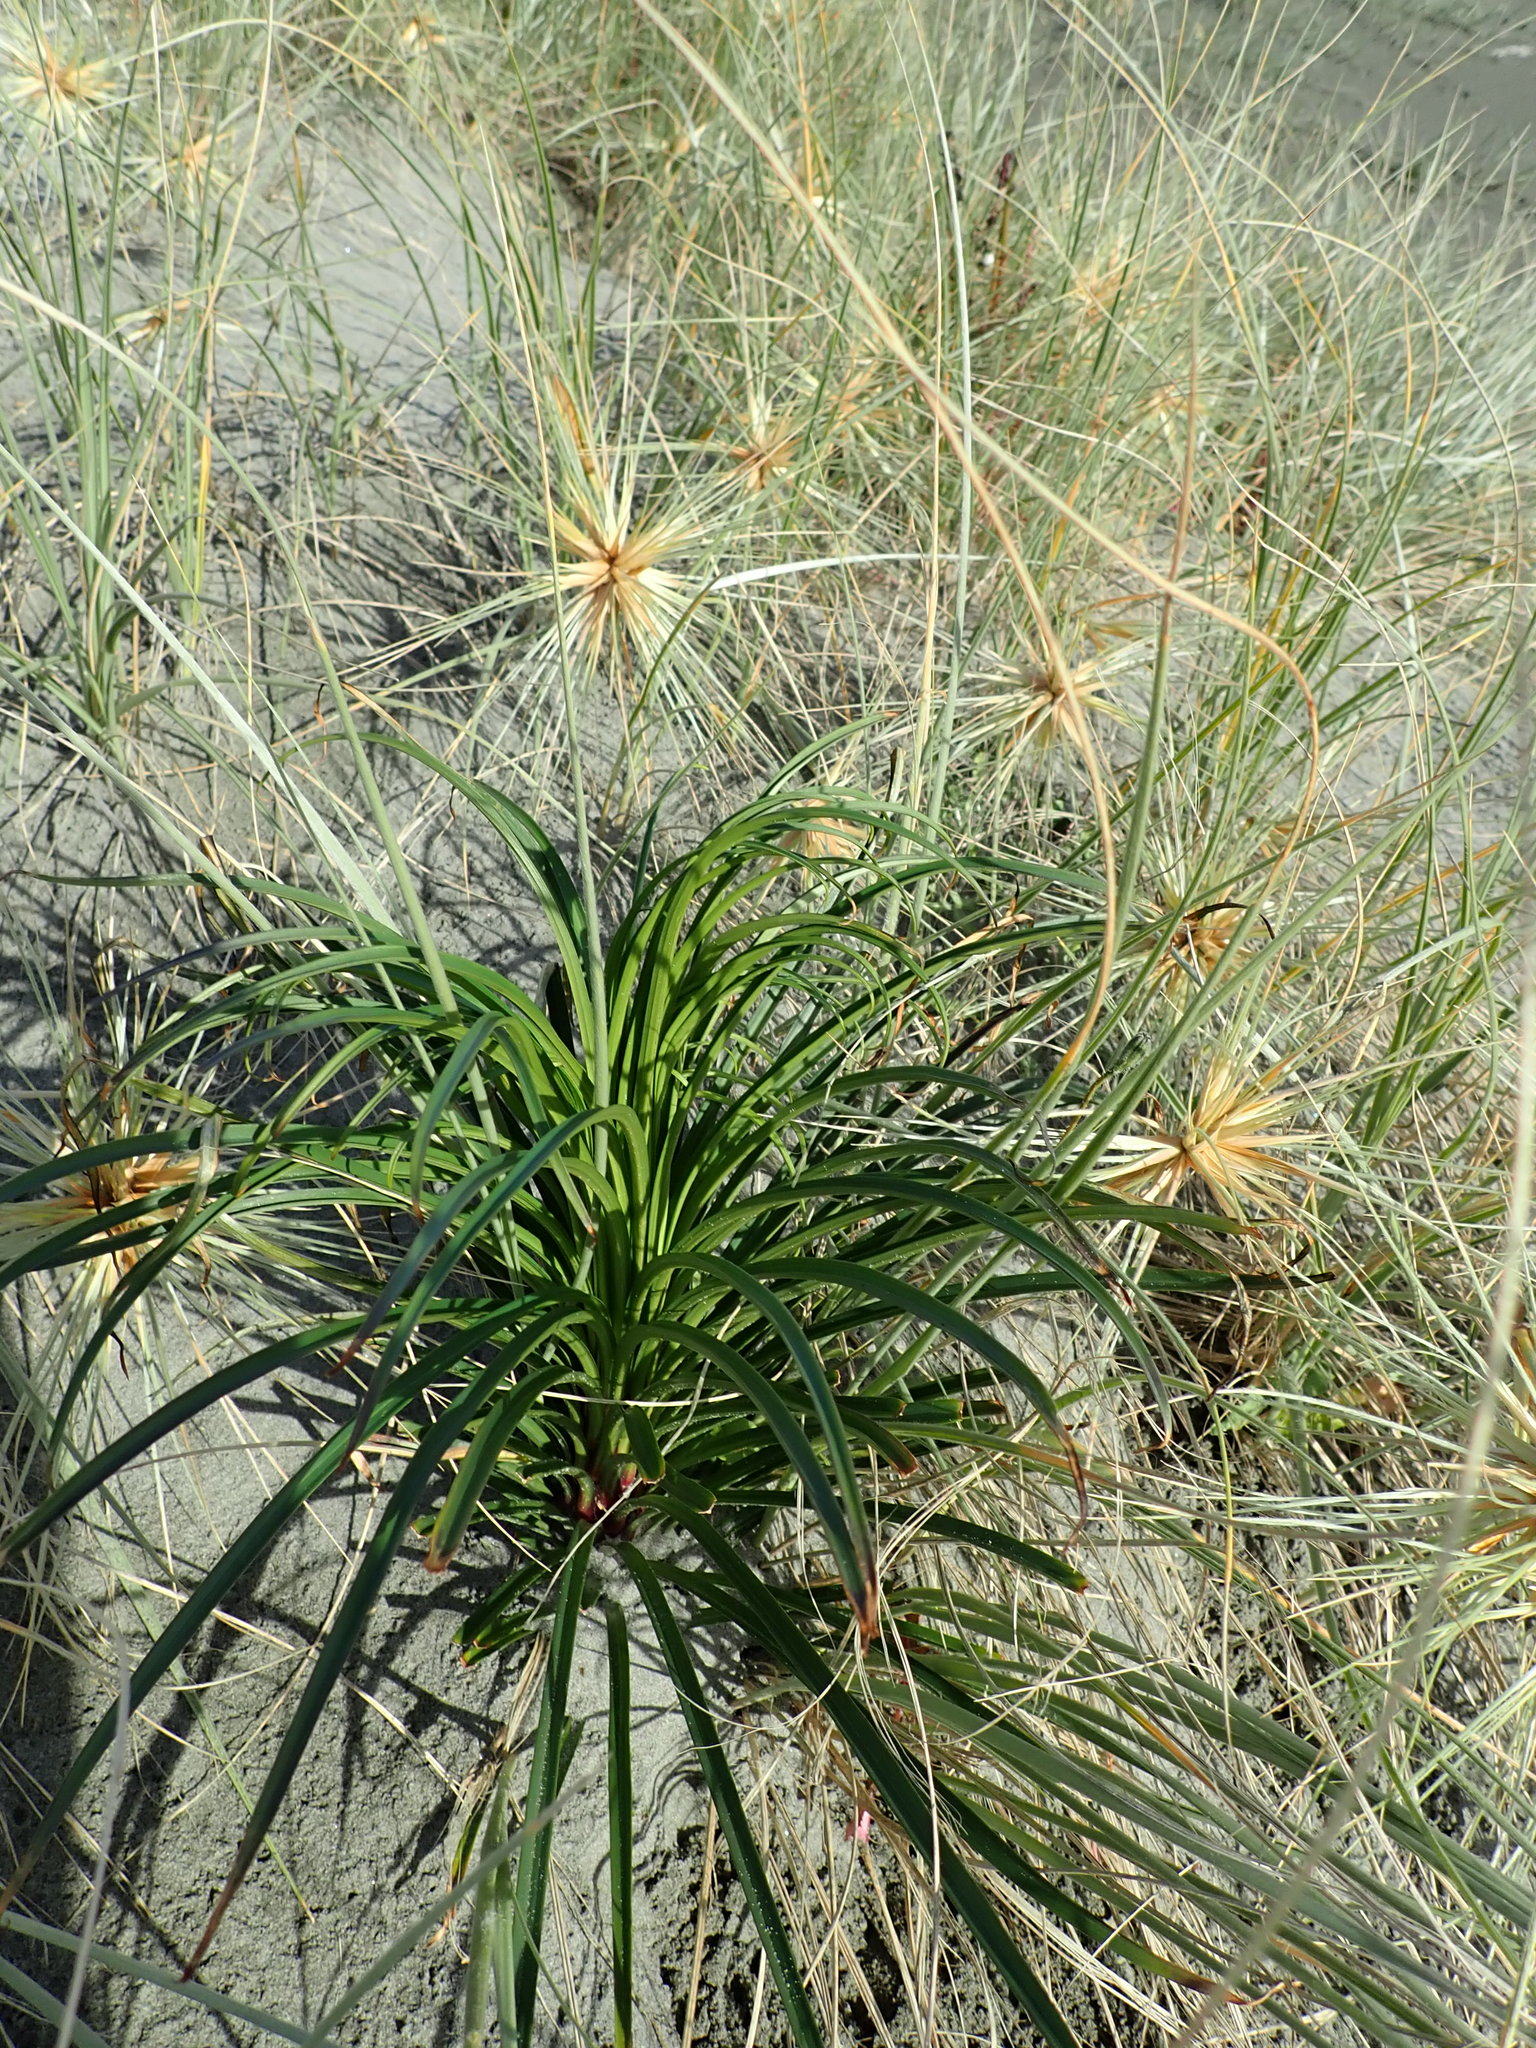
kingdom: Plantae
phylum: Tracheophyta
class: Liliopsida
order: Liliales
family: Liliaceae
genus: Lilium
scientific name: Lilium formosanum
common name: Formosa lily
